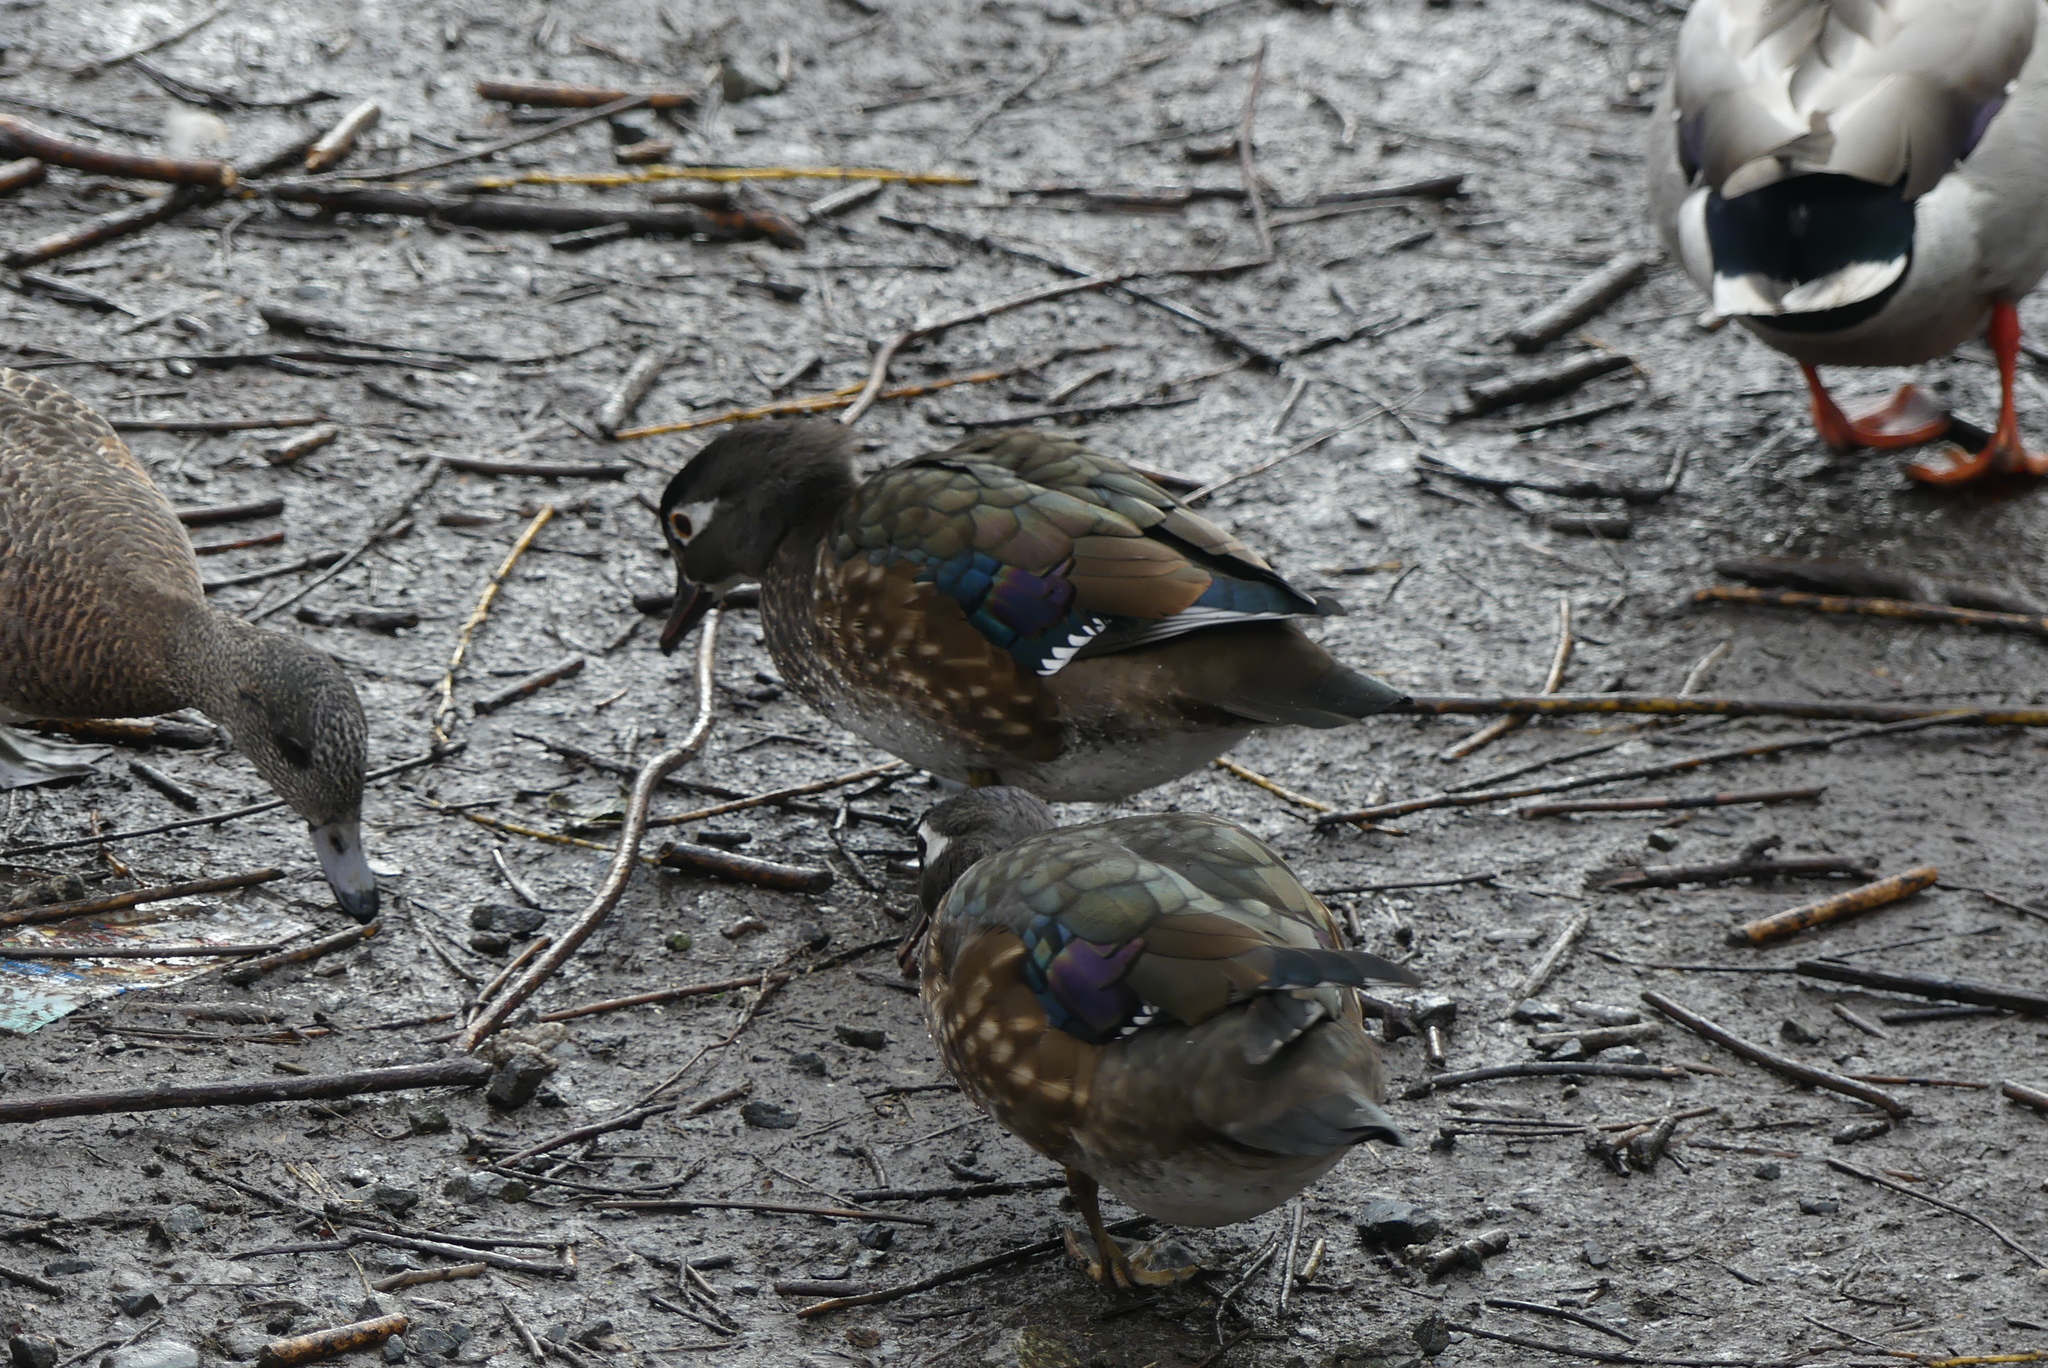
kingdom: Animalia
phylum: Chordata
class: Aves
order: Anseriformes
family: Anatidae
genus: Aix
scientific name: Aix sponsa
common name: Wood duck
